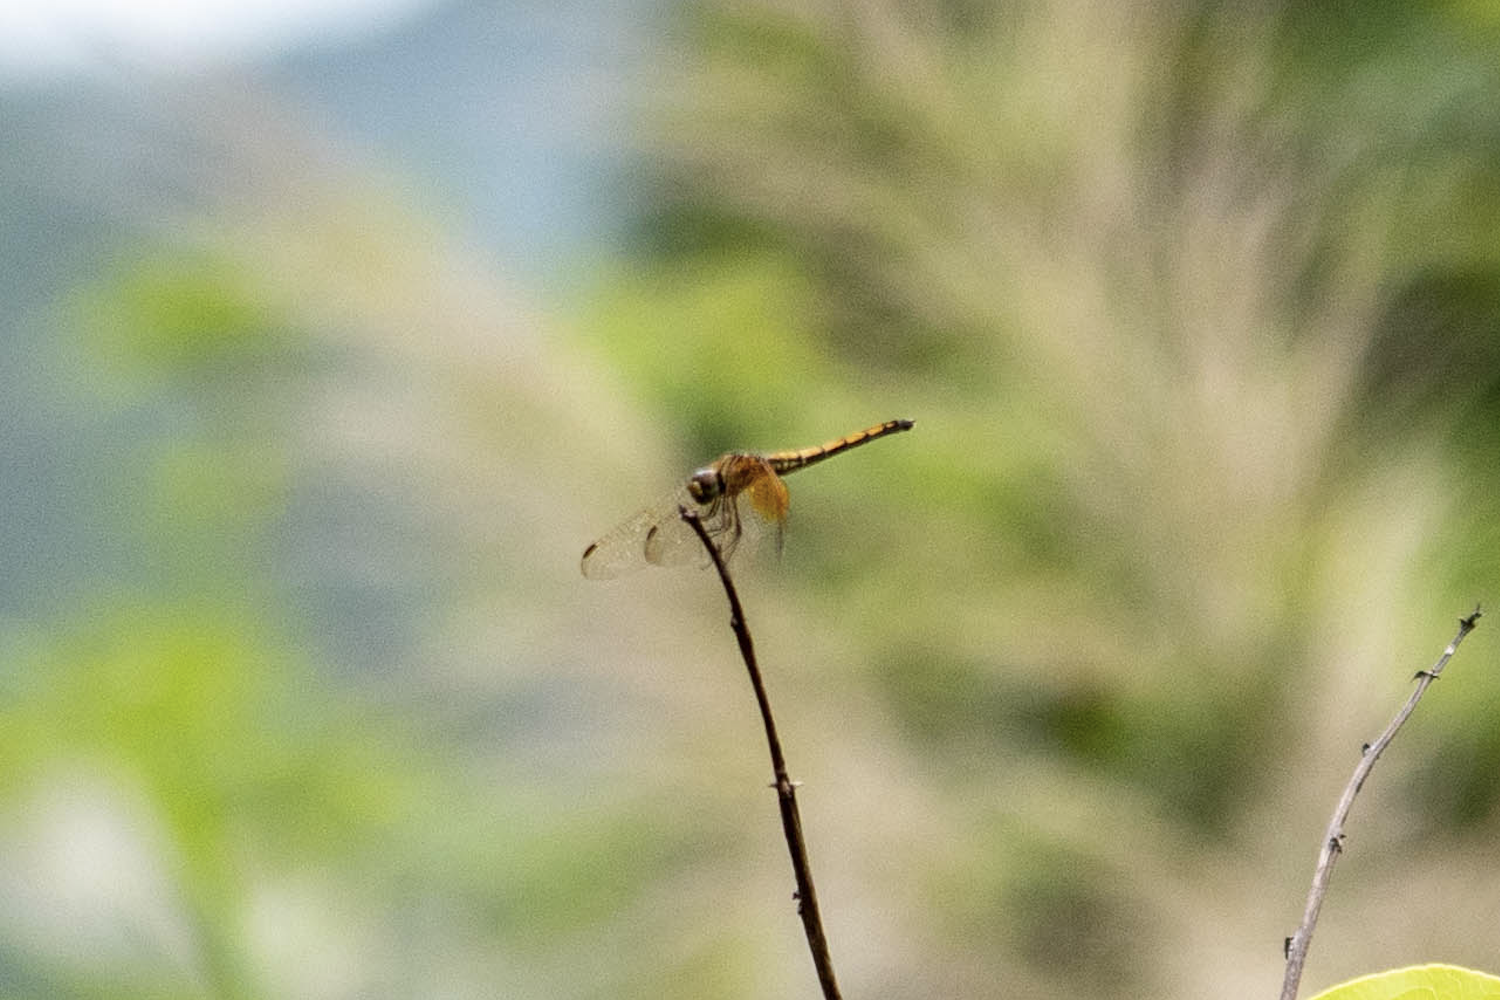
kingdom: Animalia
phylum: Arthropoda
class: Insecta
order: Odonata
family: Libellulidae
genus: Trithemis
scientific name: Trithemis aurora
